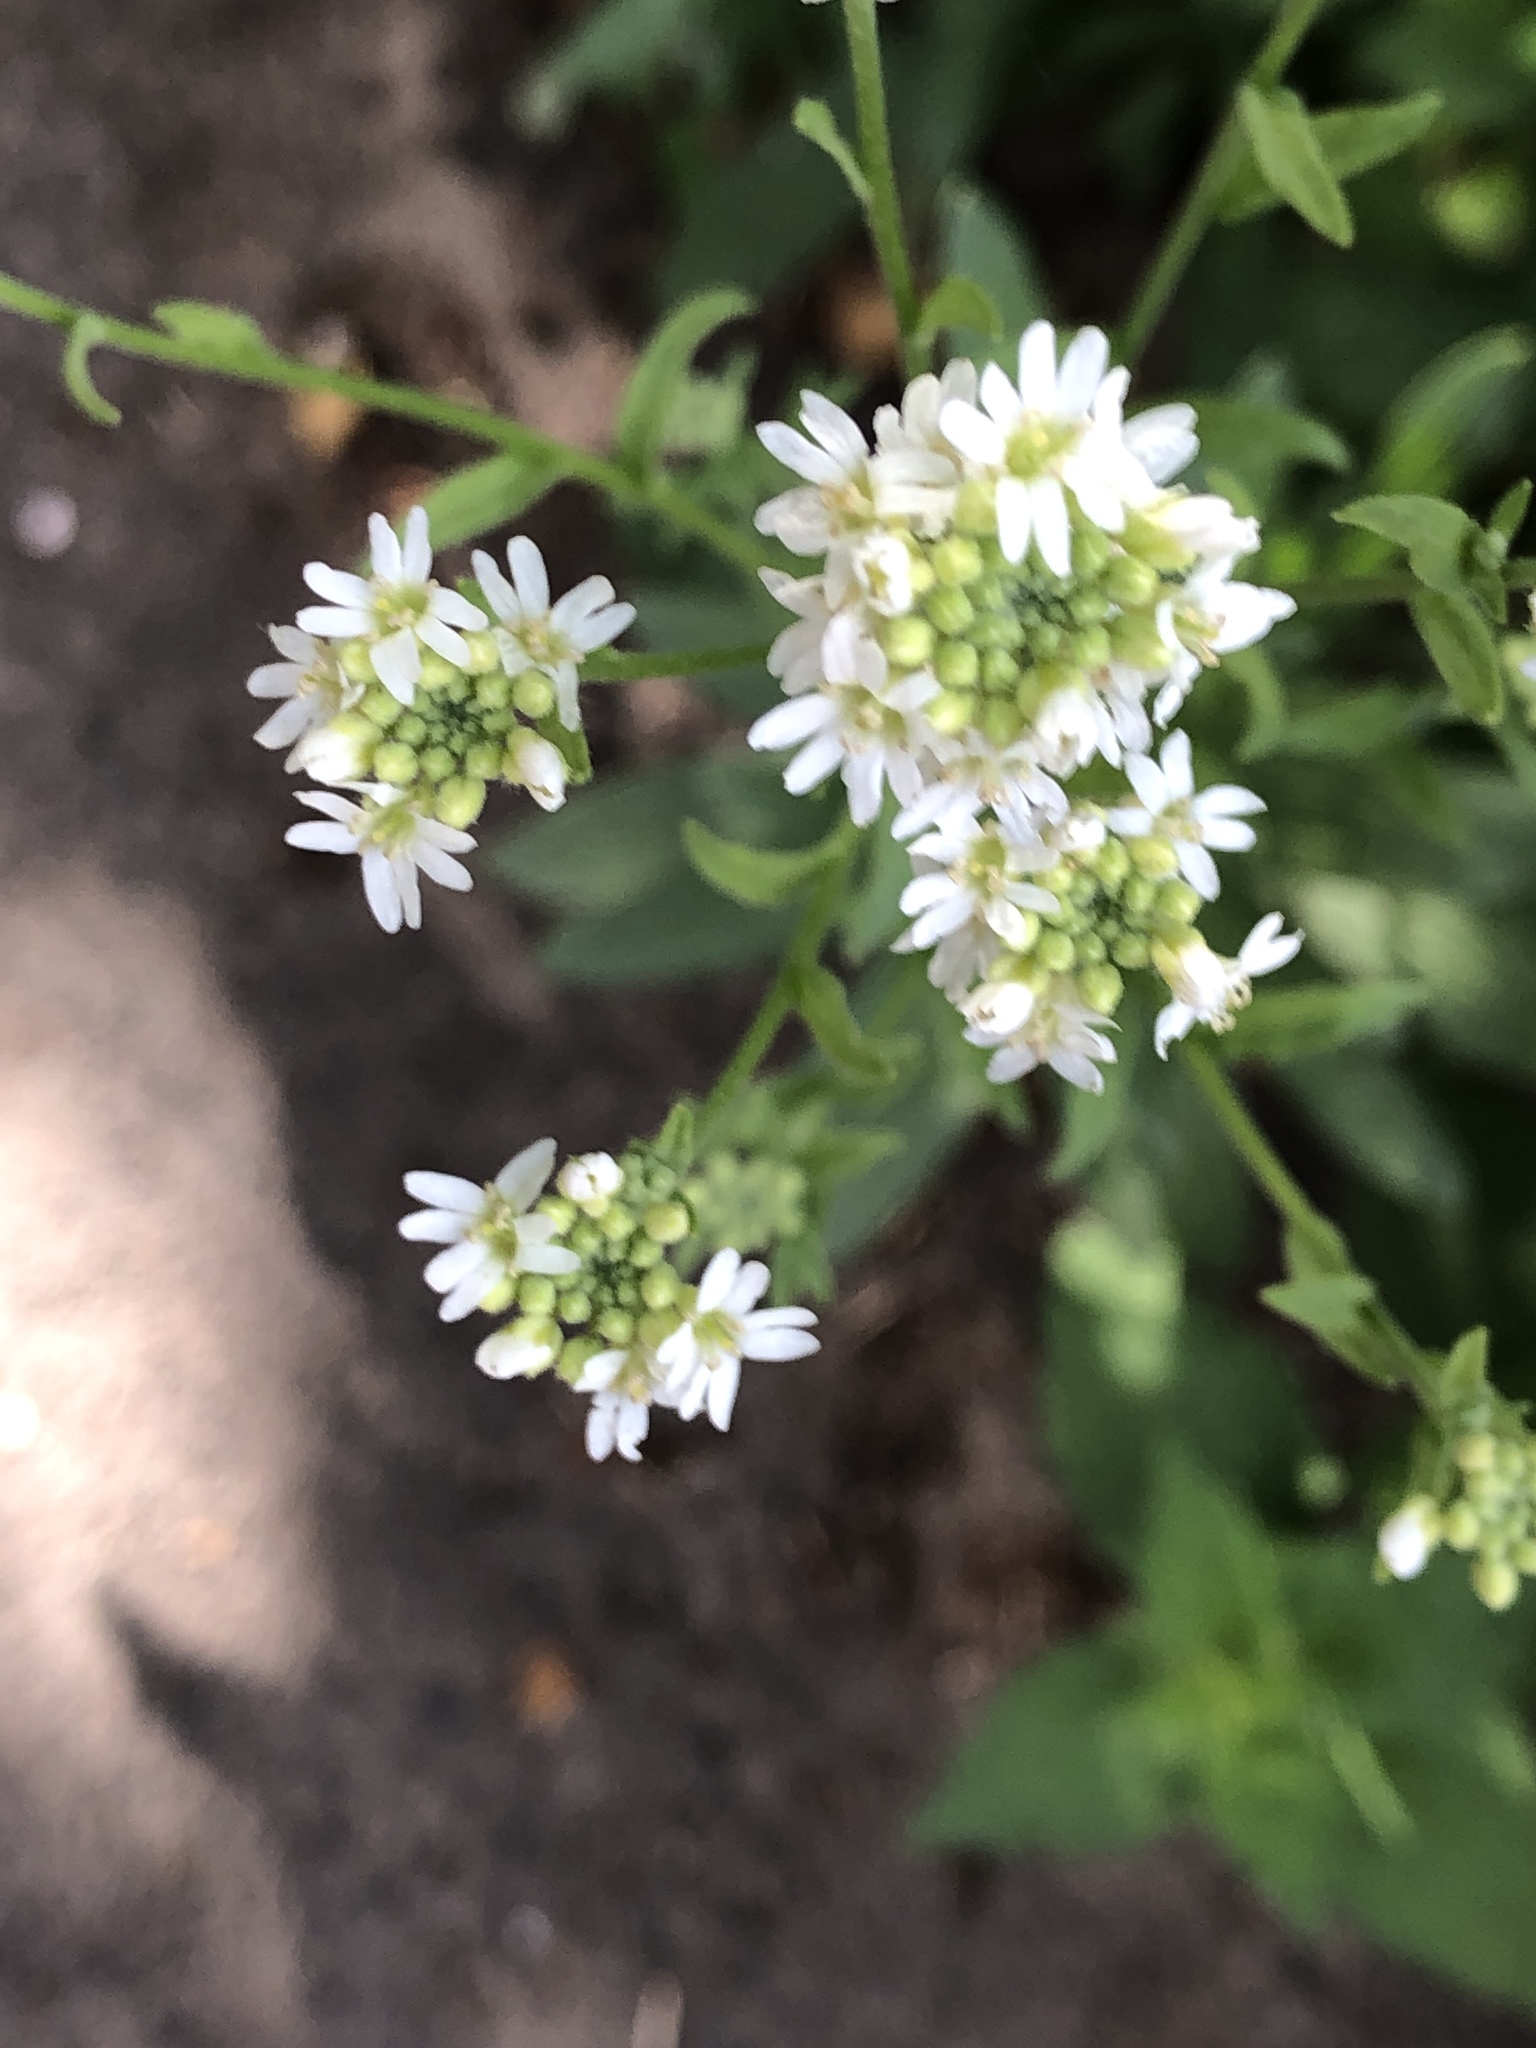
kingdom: Plantae
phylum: Tracheophyta
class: Magnoliopsida
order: Brassicales
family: Brassicaceae
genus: Berteroa
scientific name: Berteroa incana
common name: Hoary alison
